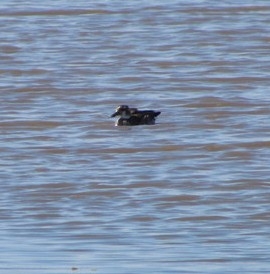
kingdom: Animalia
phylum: Chordata
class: Aves
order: Anseriformes
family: Anatidae
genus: Callonetta
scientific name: Callonetta leucophrys
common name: Ringed teal
